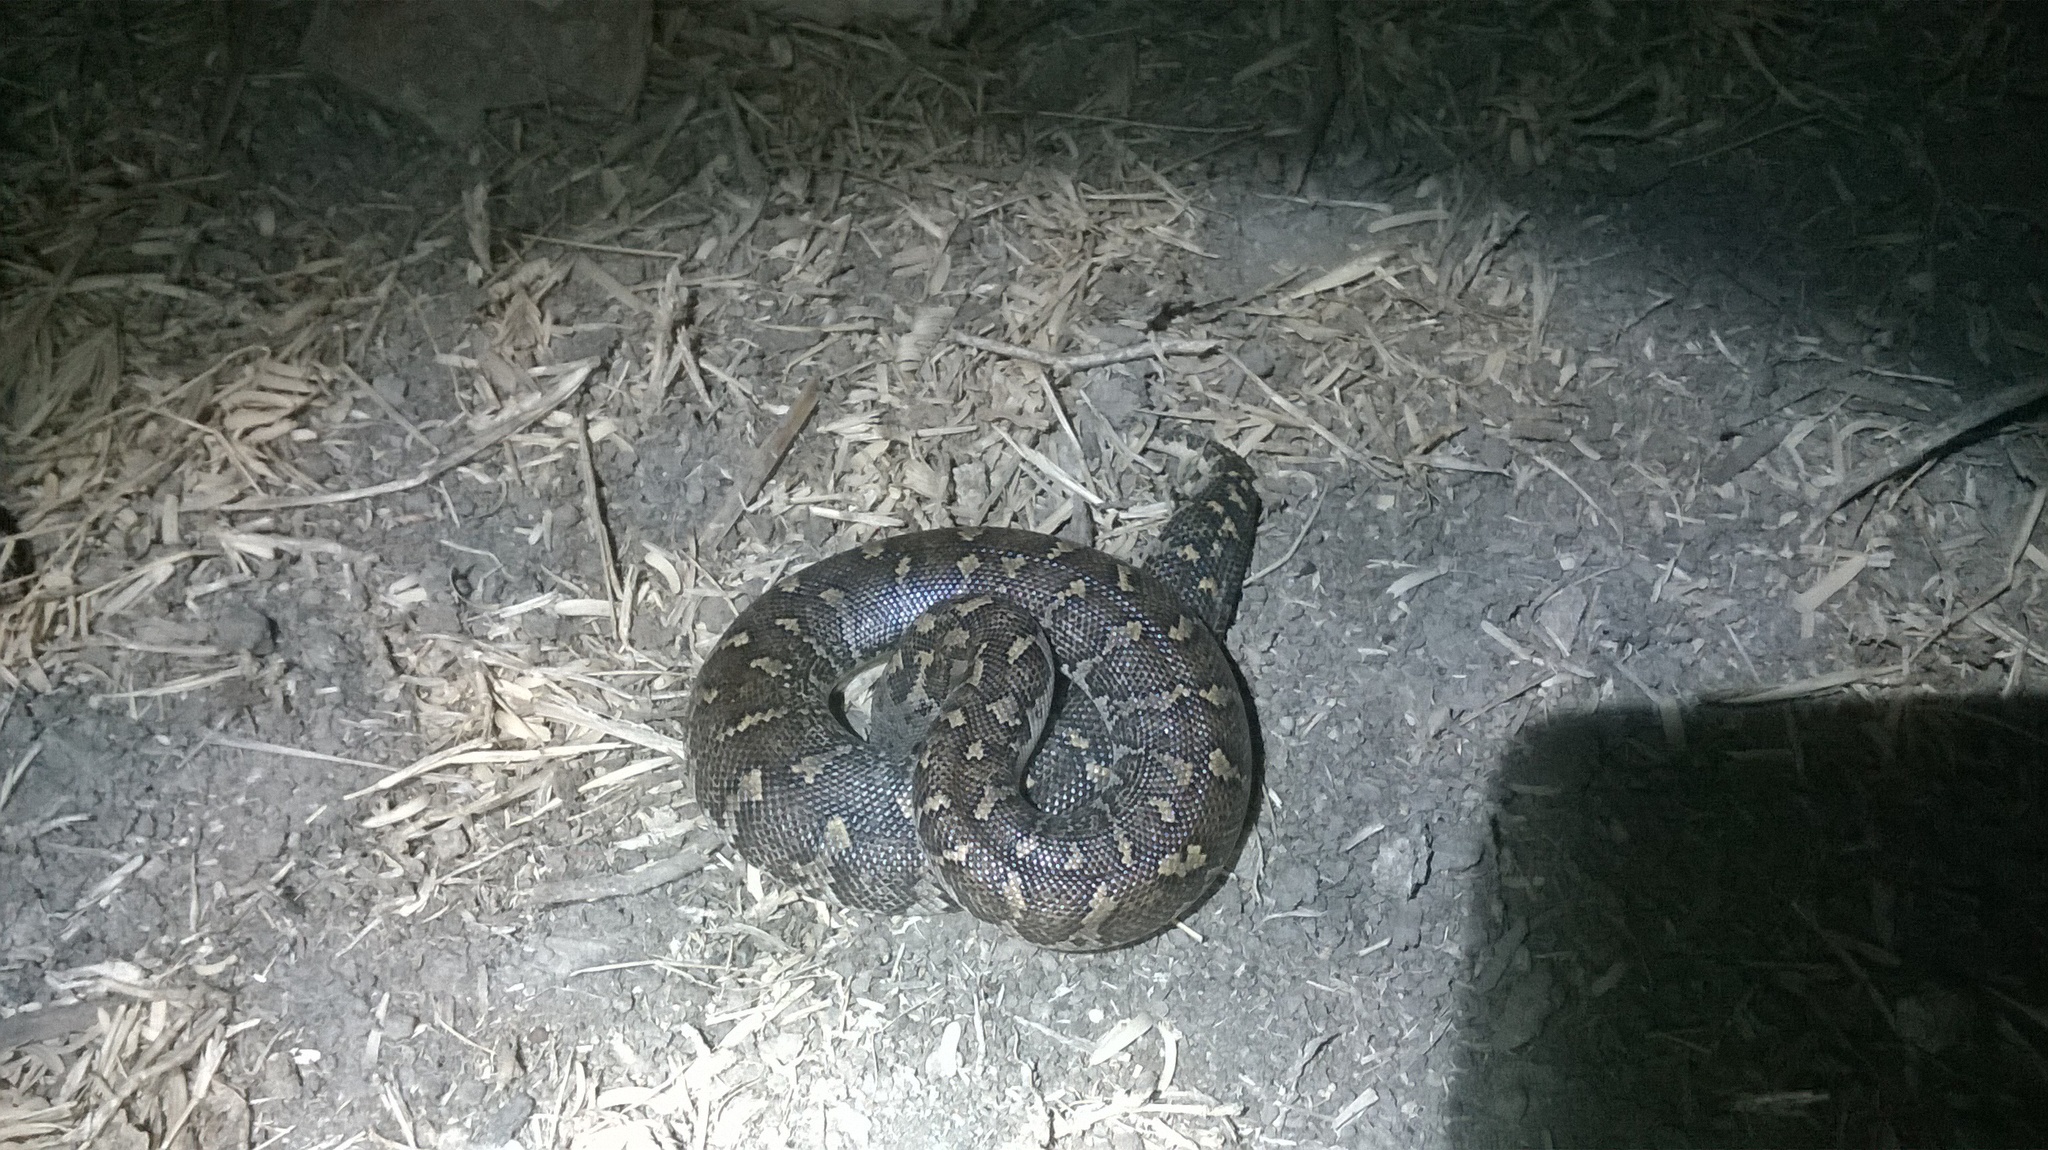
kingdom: Animalia
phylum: Chordata
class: Squamata
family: Boidae
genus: Eryx
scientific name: Eryx conicus
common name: Rough-tailed sand boa
